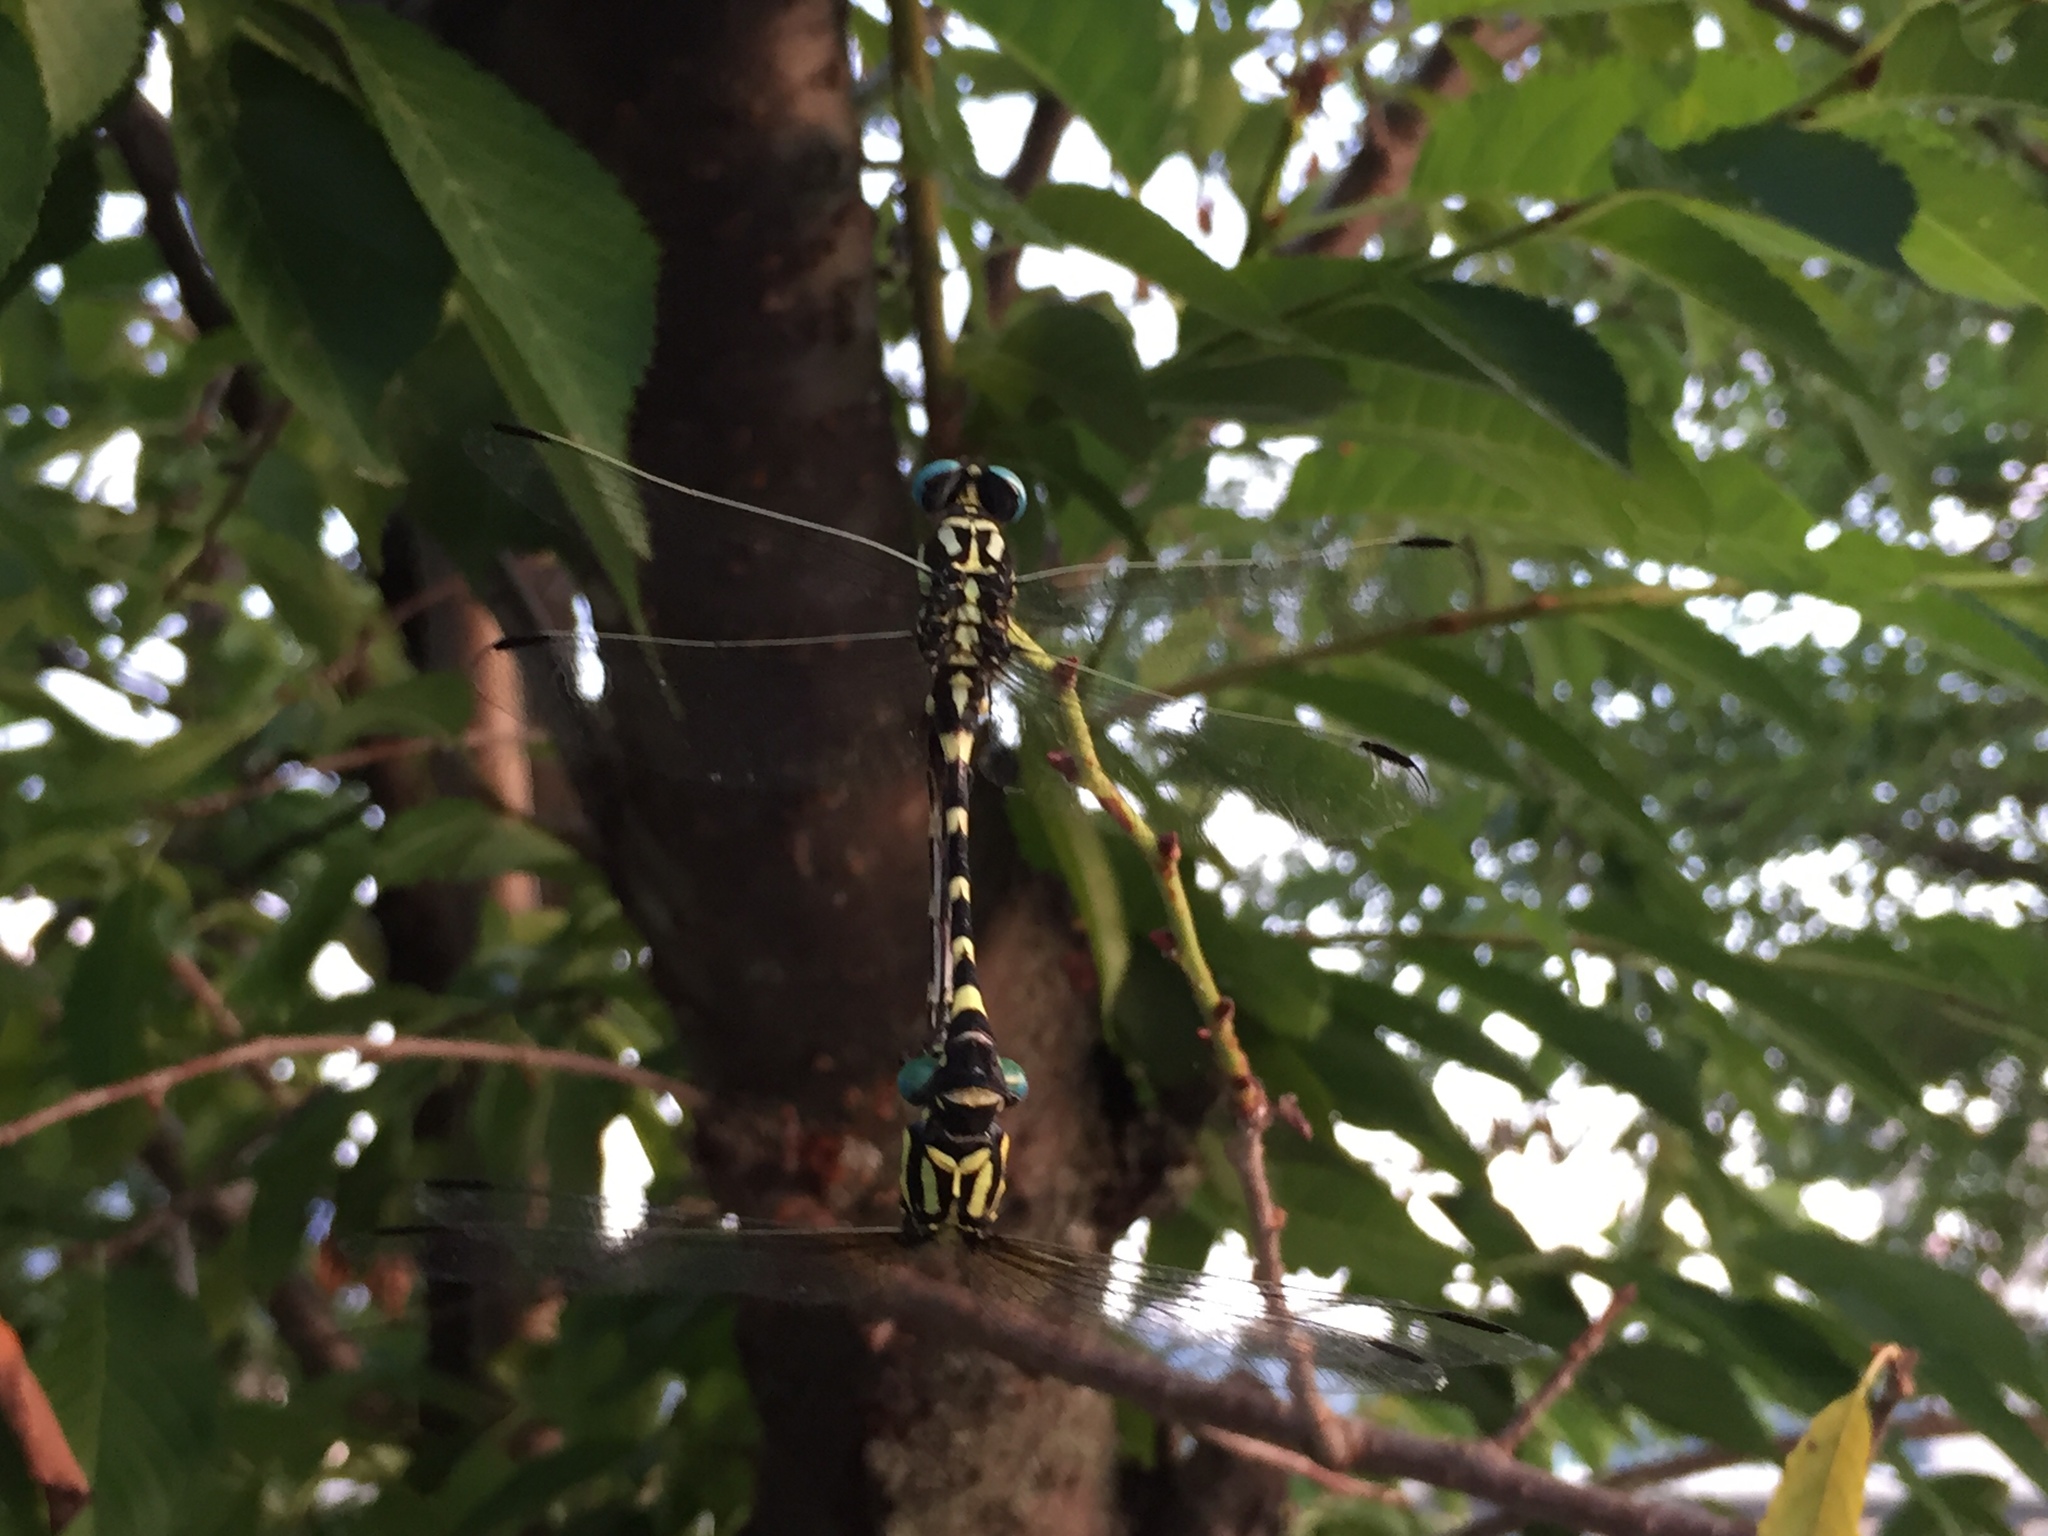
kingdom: Animalia
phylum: Arthropoda
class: Insecta
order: Odonata
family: Gomphidae
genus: Lamelligomphus
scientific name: Lamelligomphus ringens
